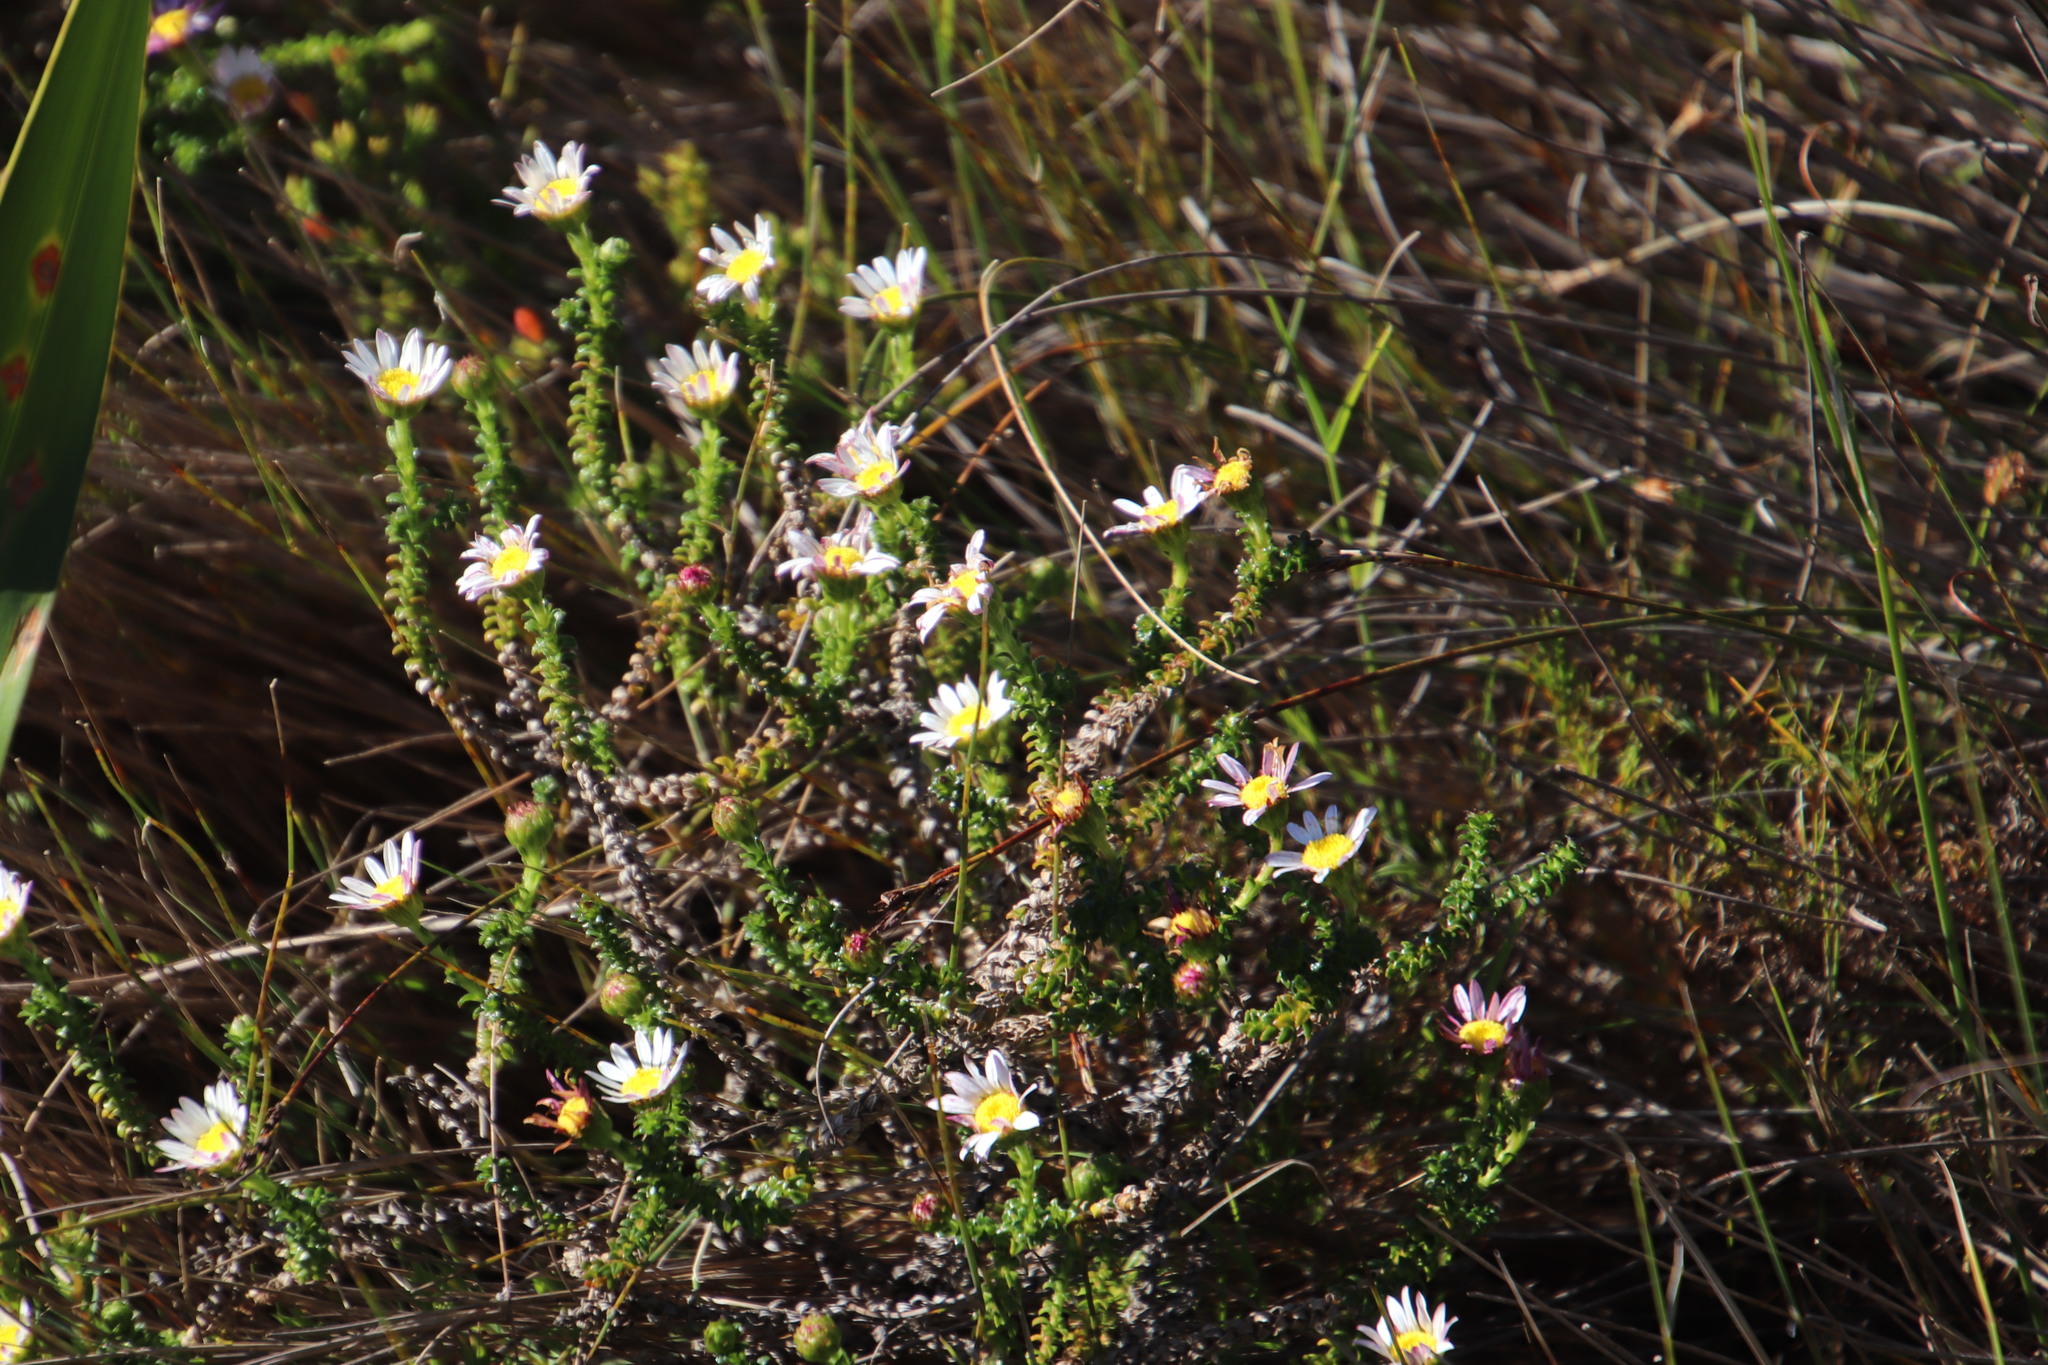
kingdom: Plantae
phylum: Tracheophyta
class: Magnoliopsida
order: Asterales
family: Asteraceae
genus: Polyarrhena
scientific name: Polyarrhena reflexa
